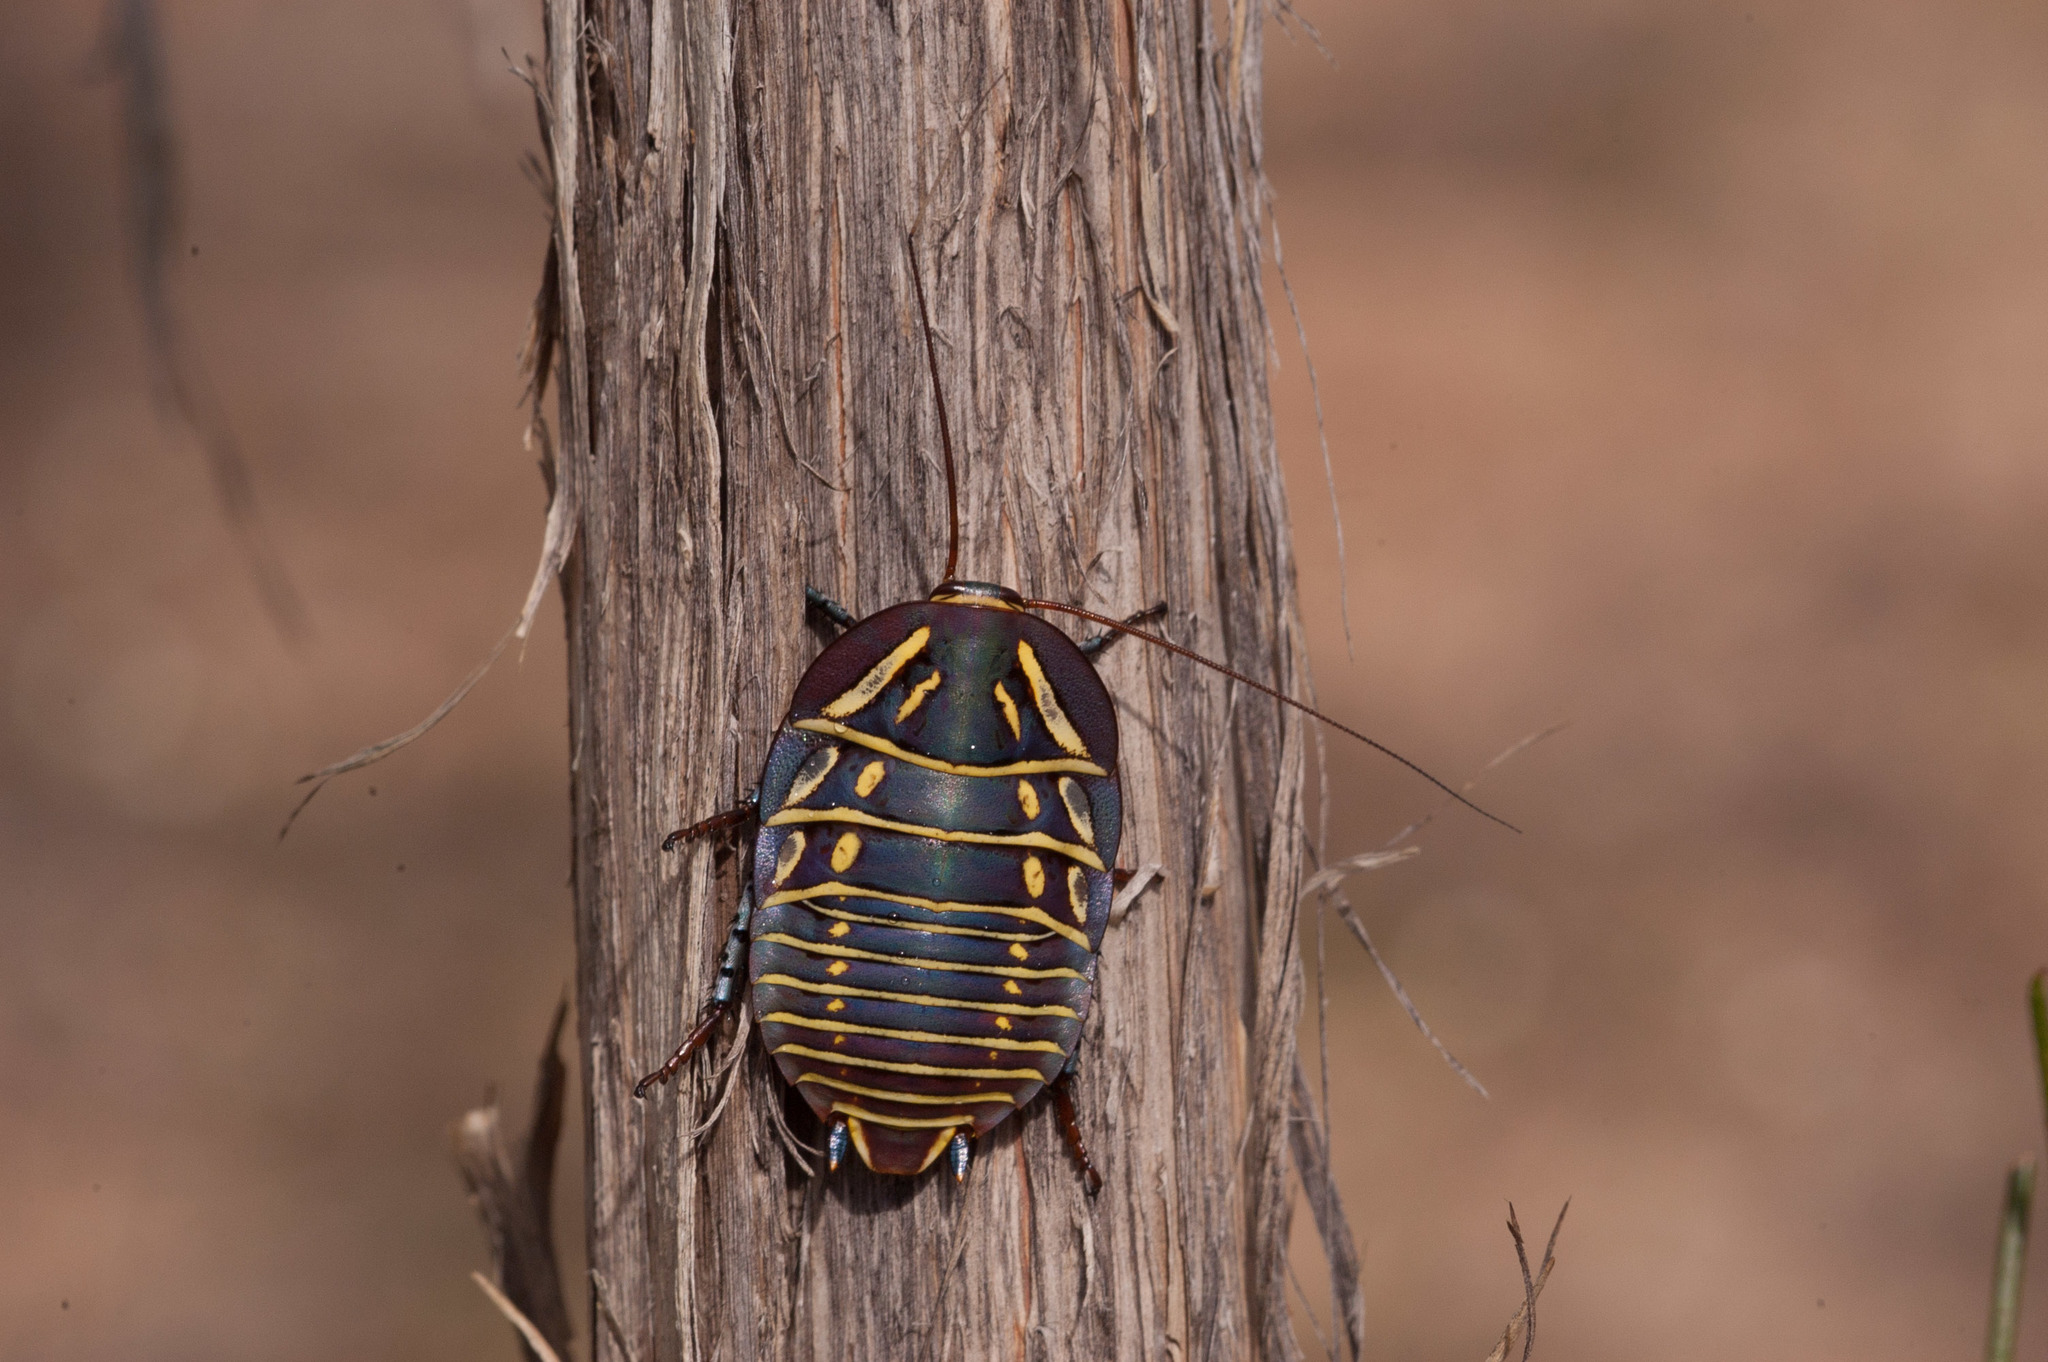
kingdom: Animalia
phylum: Arthropoda
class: Insecta
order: Blattodea
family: Blattidae
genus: Polyzosteria
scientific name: Polyzosteria mitchelli
